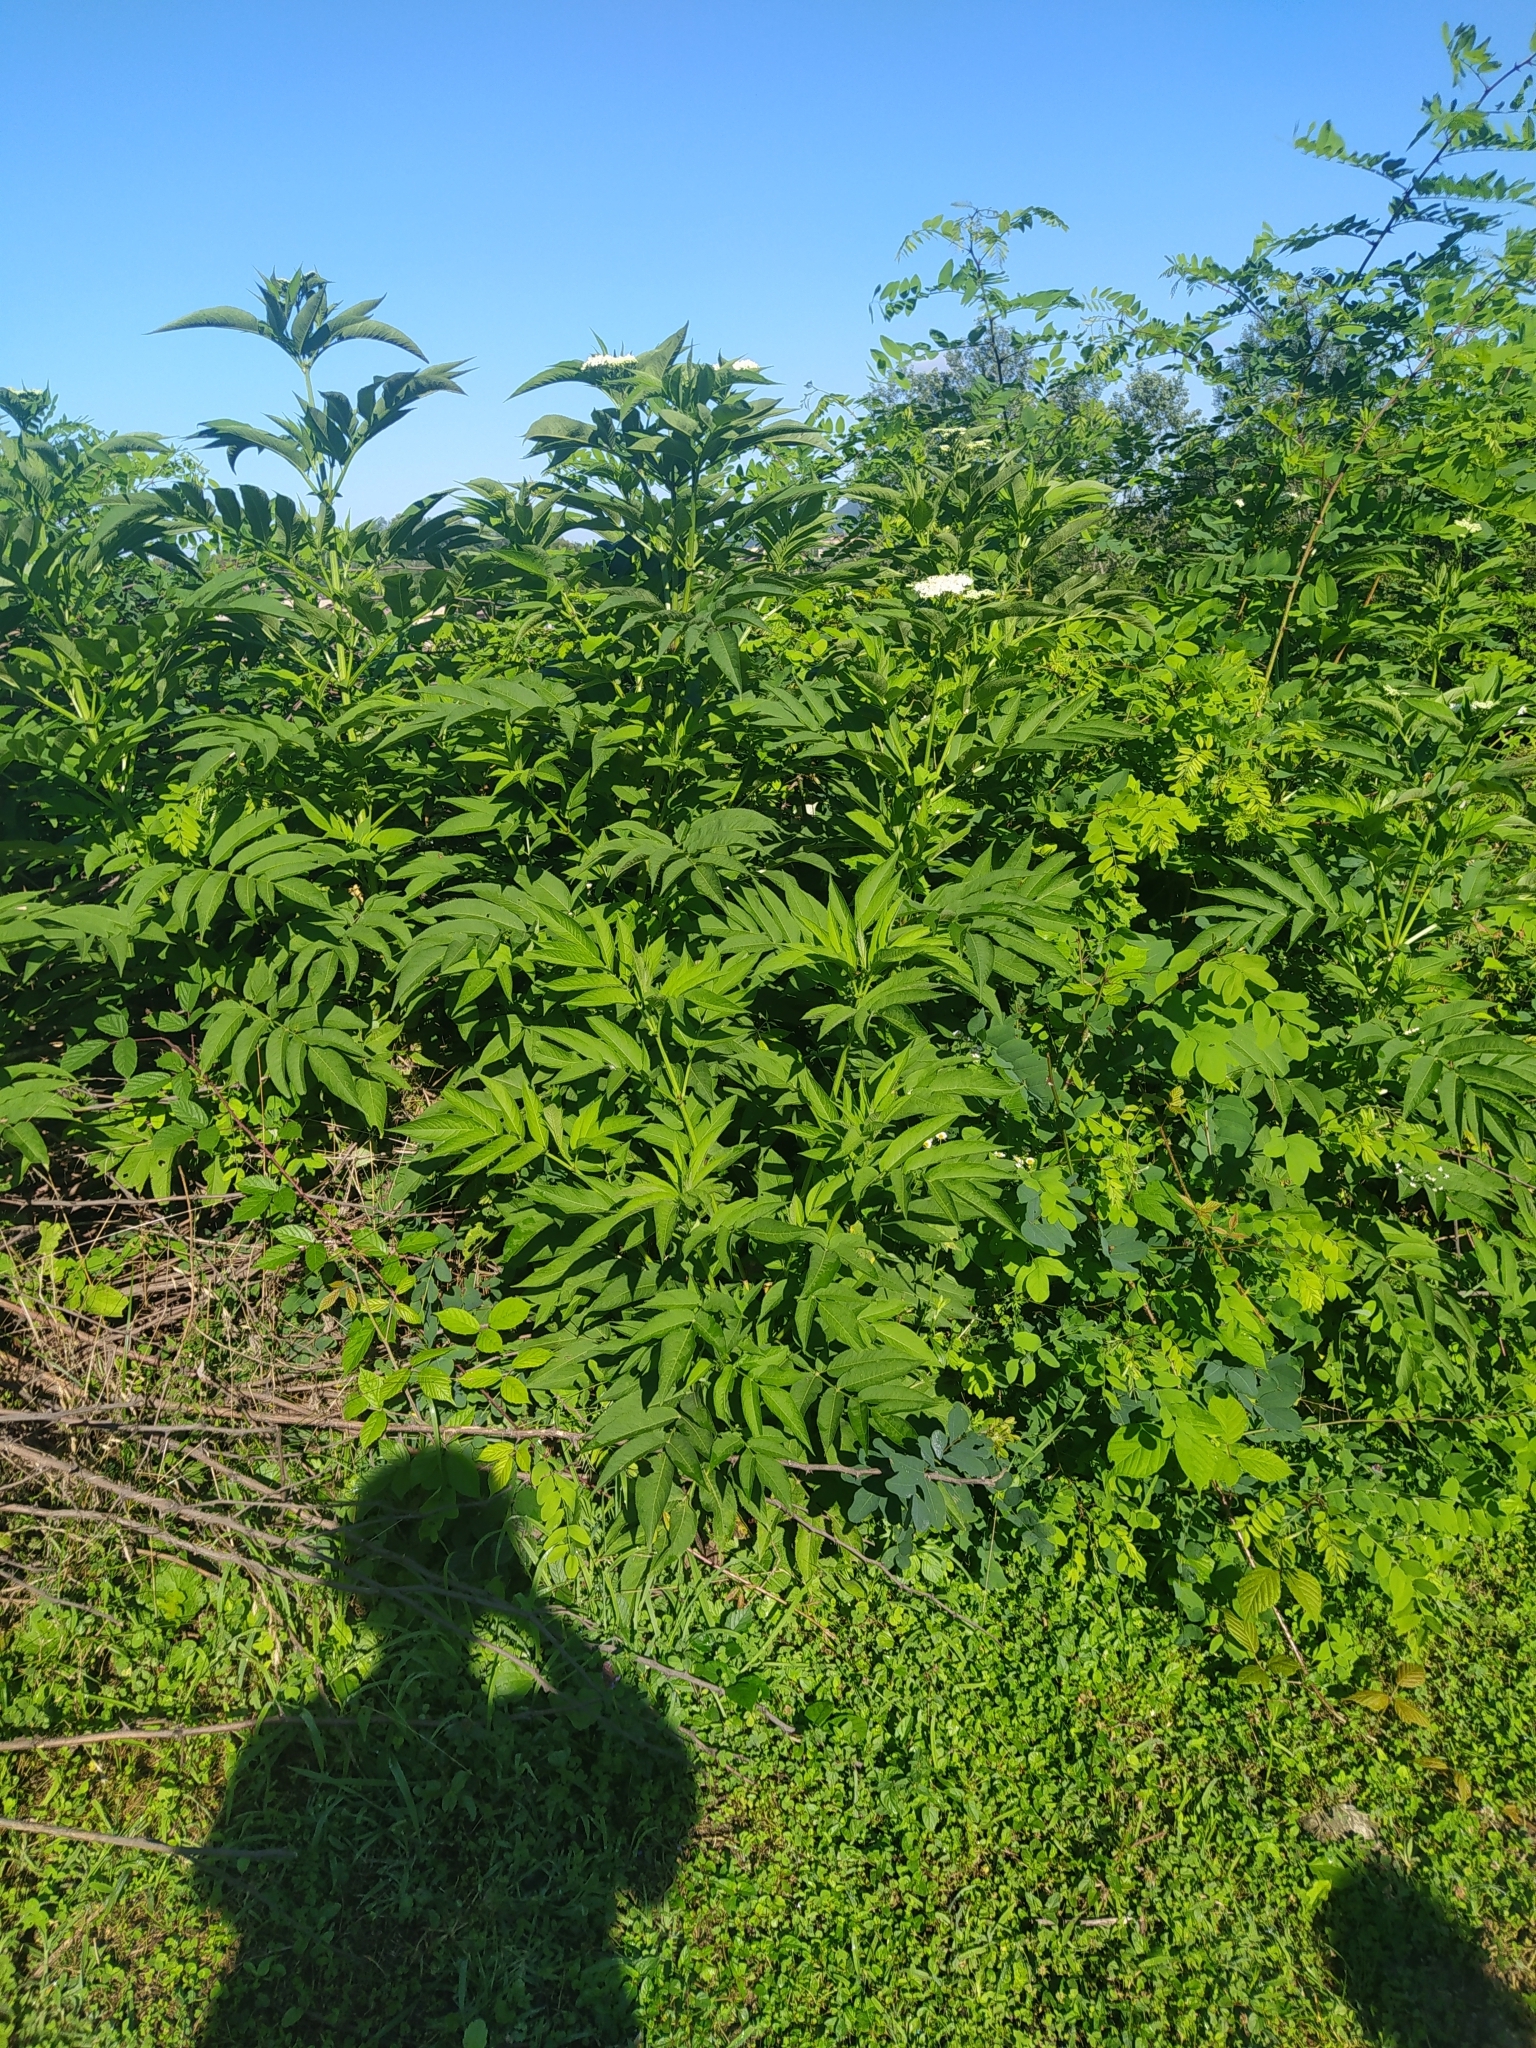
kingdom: Plantae
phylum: Tracheophyta
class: Magnoliopsida
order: Dipsacales
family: Viburnaceae
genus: Sambucus
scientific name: Sambucus ebulus
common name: Dwarf elder
